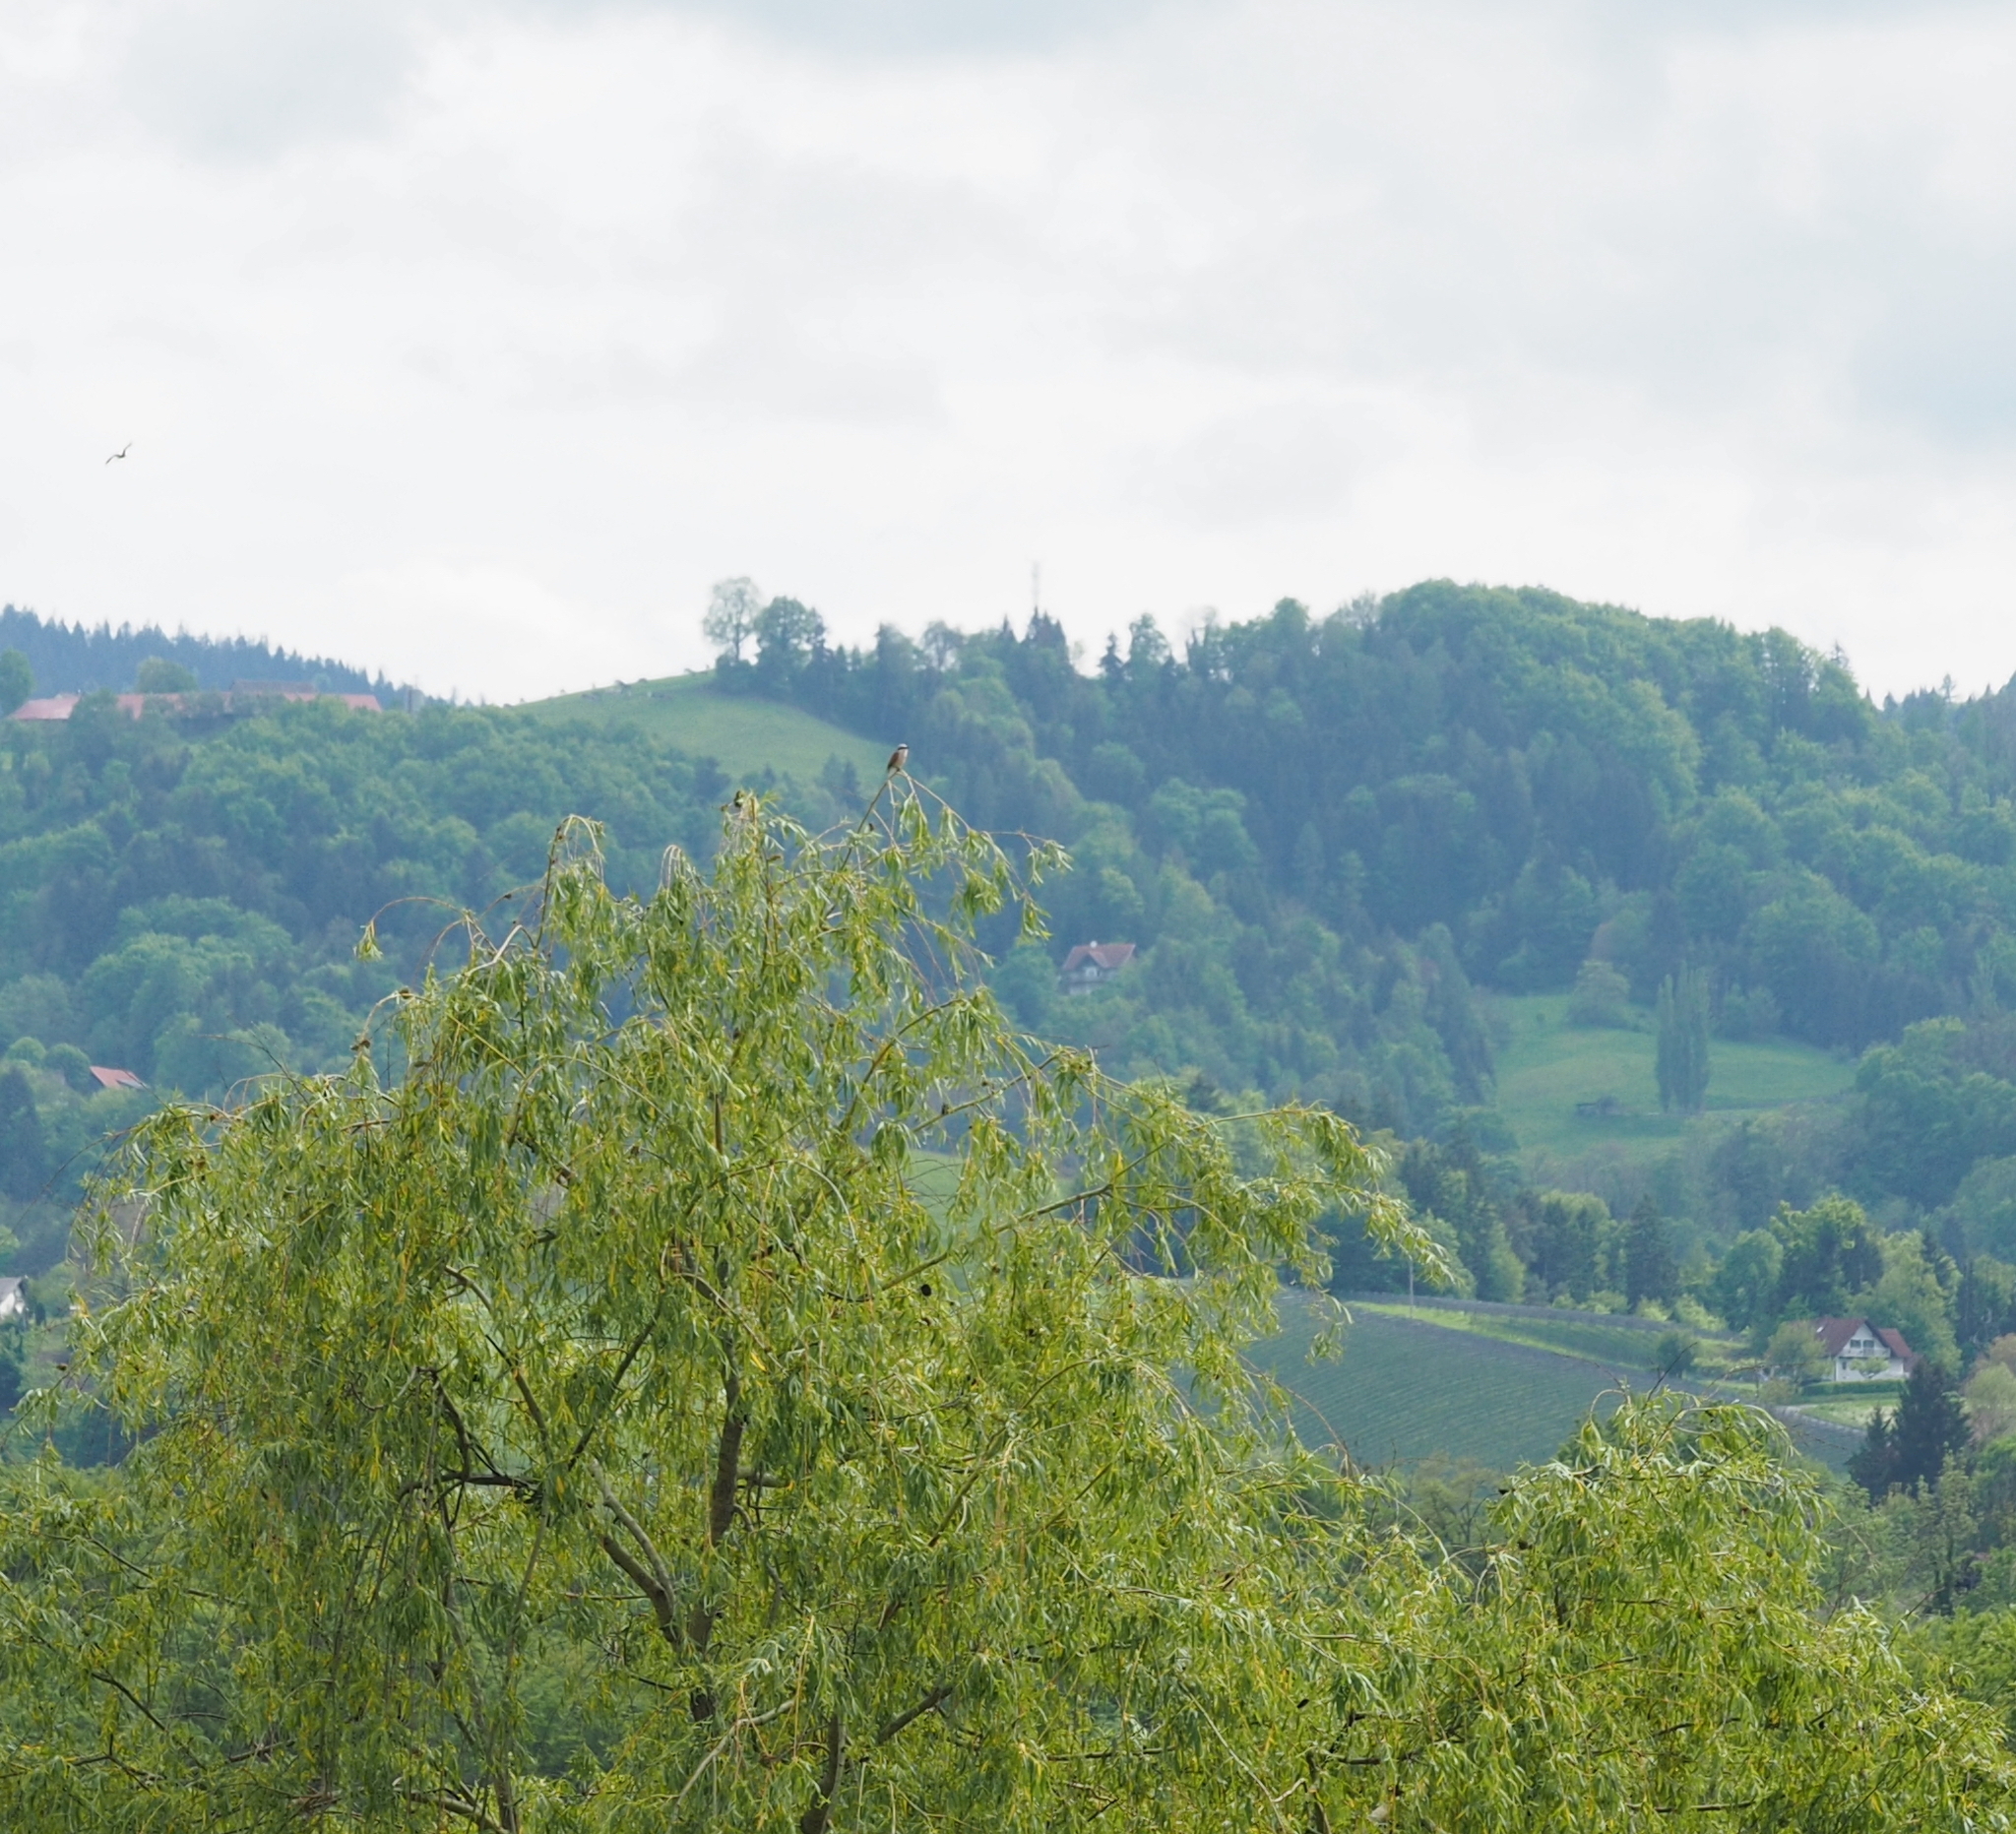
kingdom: Animalia
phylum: Chordata
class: Aves
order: Passeriformes
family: Laniidae
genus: Lanius
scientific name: Lanius collurio
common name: Red-backed shrike
